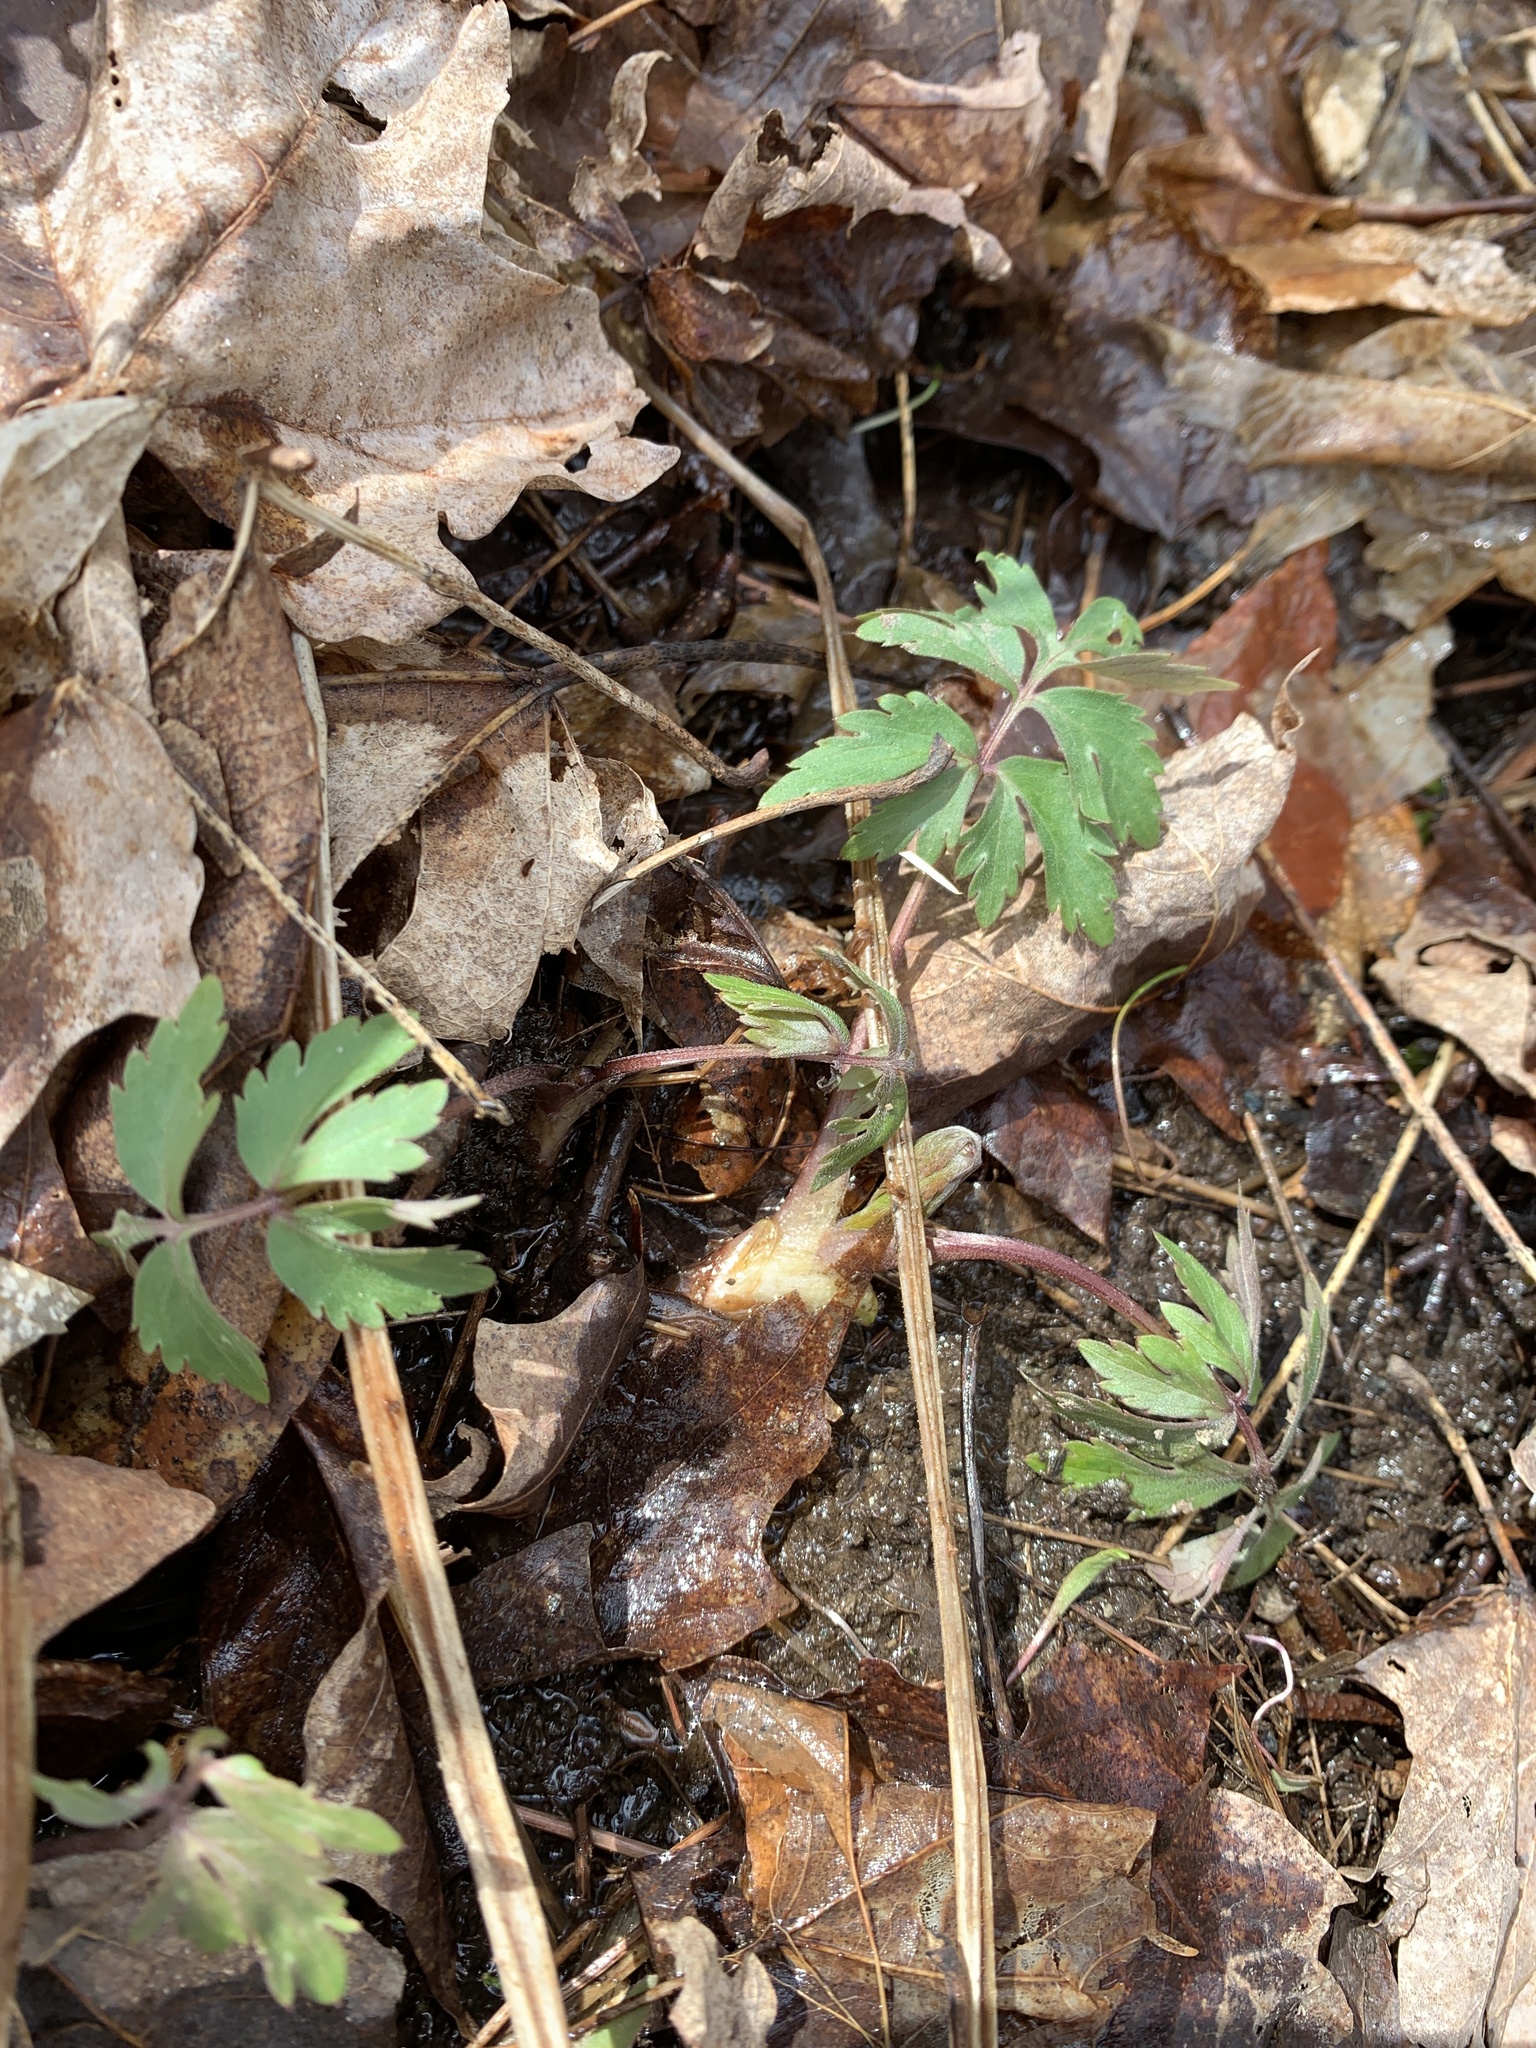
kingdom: Plantae
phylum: Tracheophyta
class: Magnoliopsida
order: Boraginales
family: Hydrophyllaceae
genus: Hydrophyllum
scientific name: Hydrophyllum virginianum
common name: Virginia waterleaf
